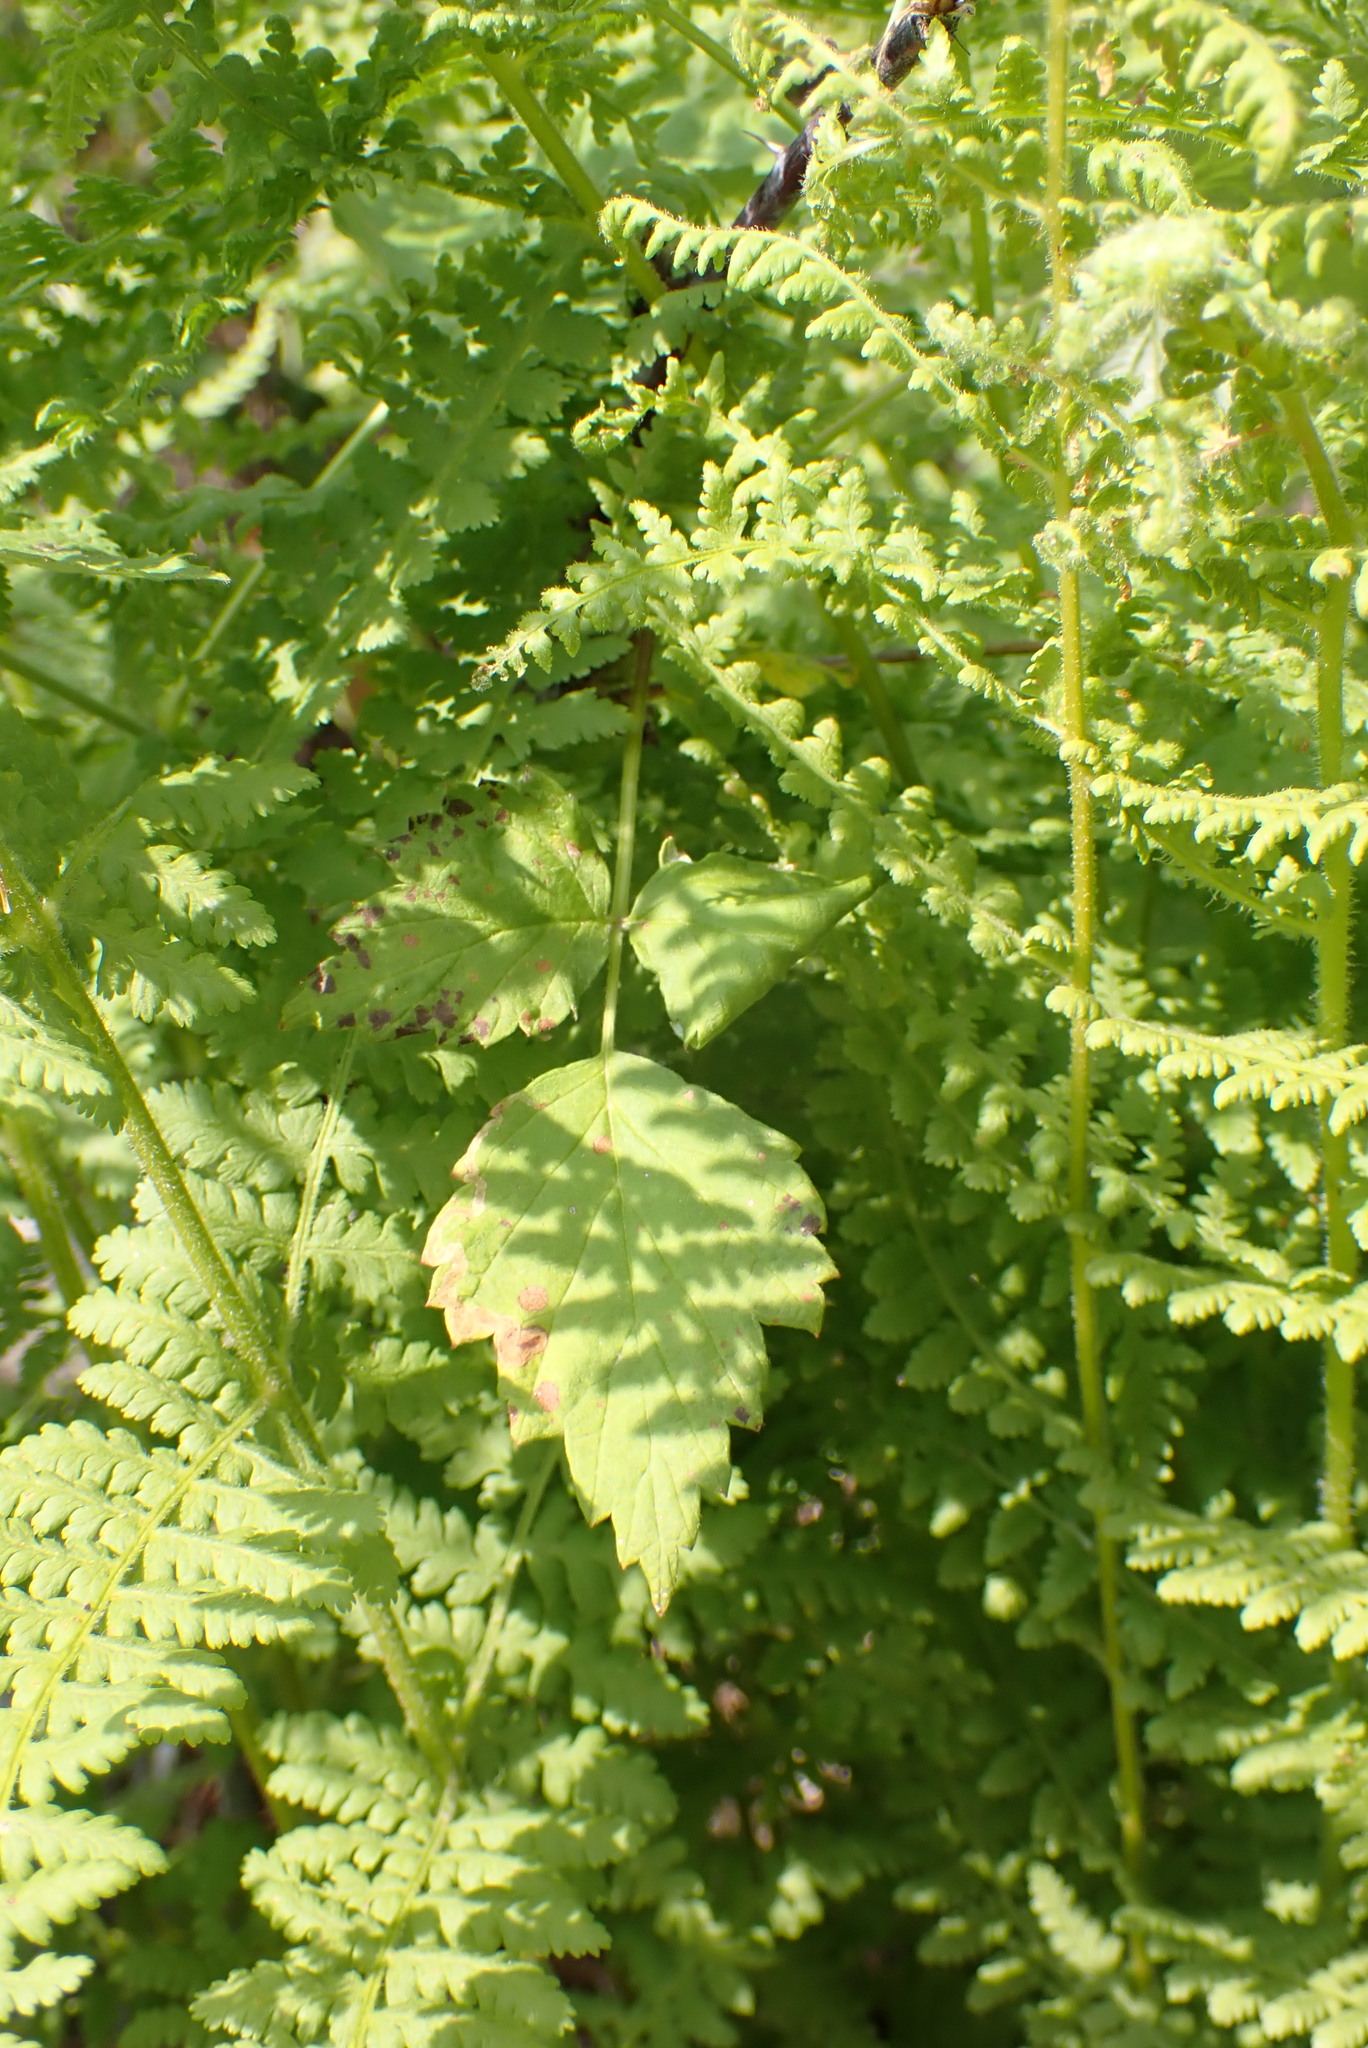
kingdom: Plantae
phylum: Tracheophyta
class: Polypodiopsida
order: Polypodiales
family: Dennstaedtiaceae
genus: Sitobolium
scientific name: Sitobolium punctilobum
